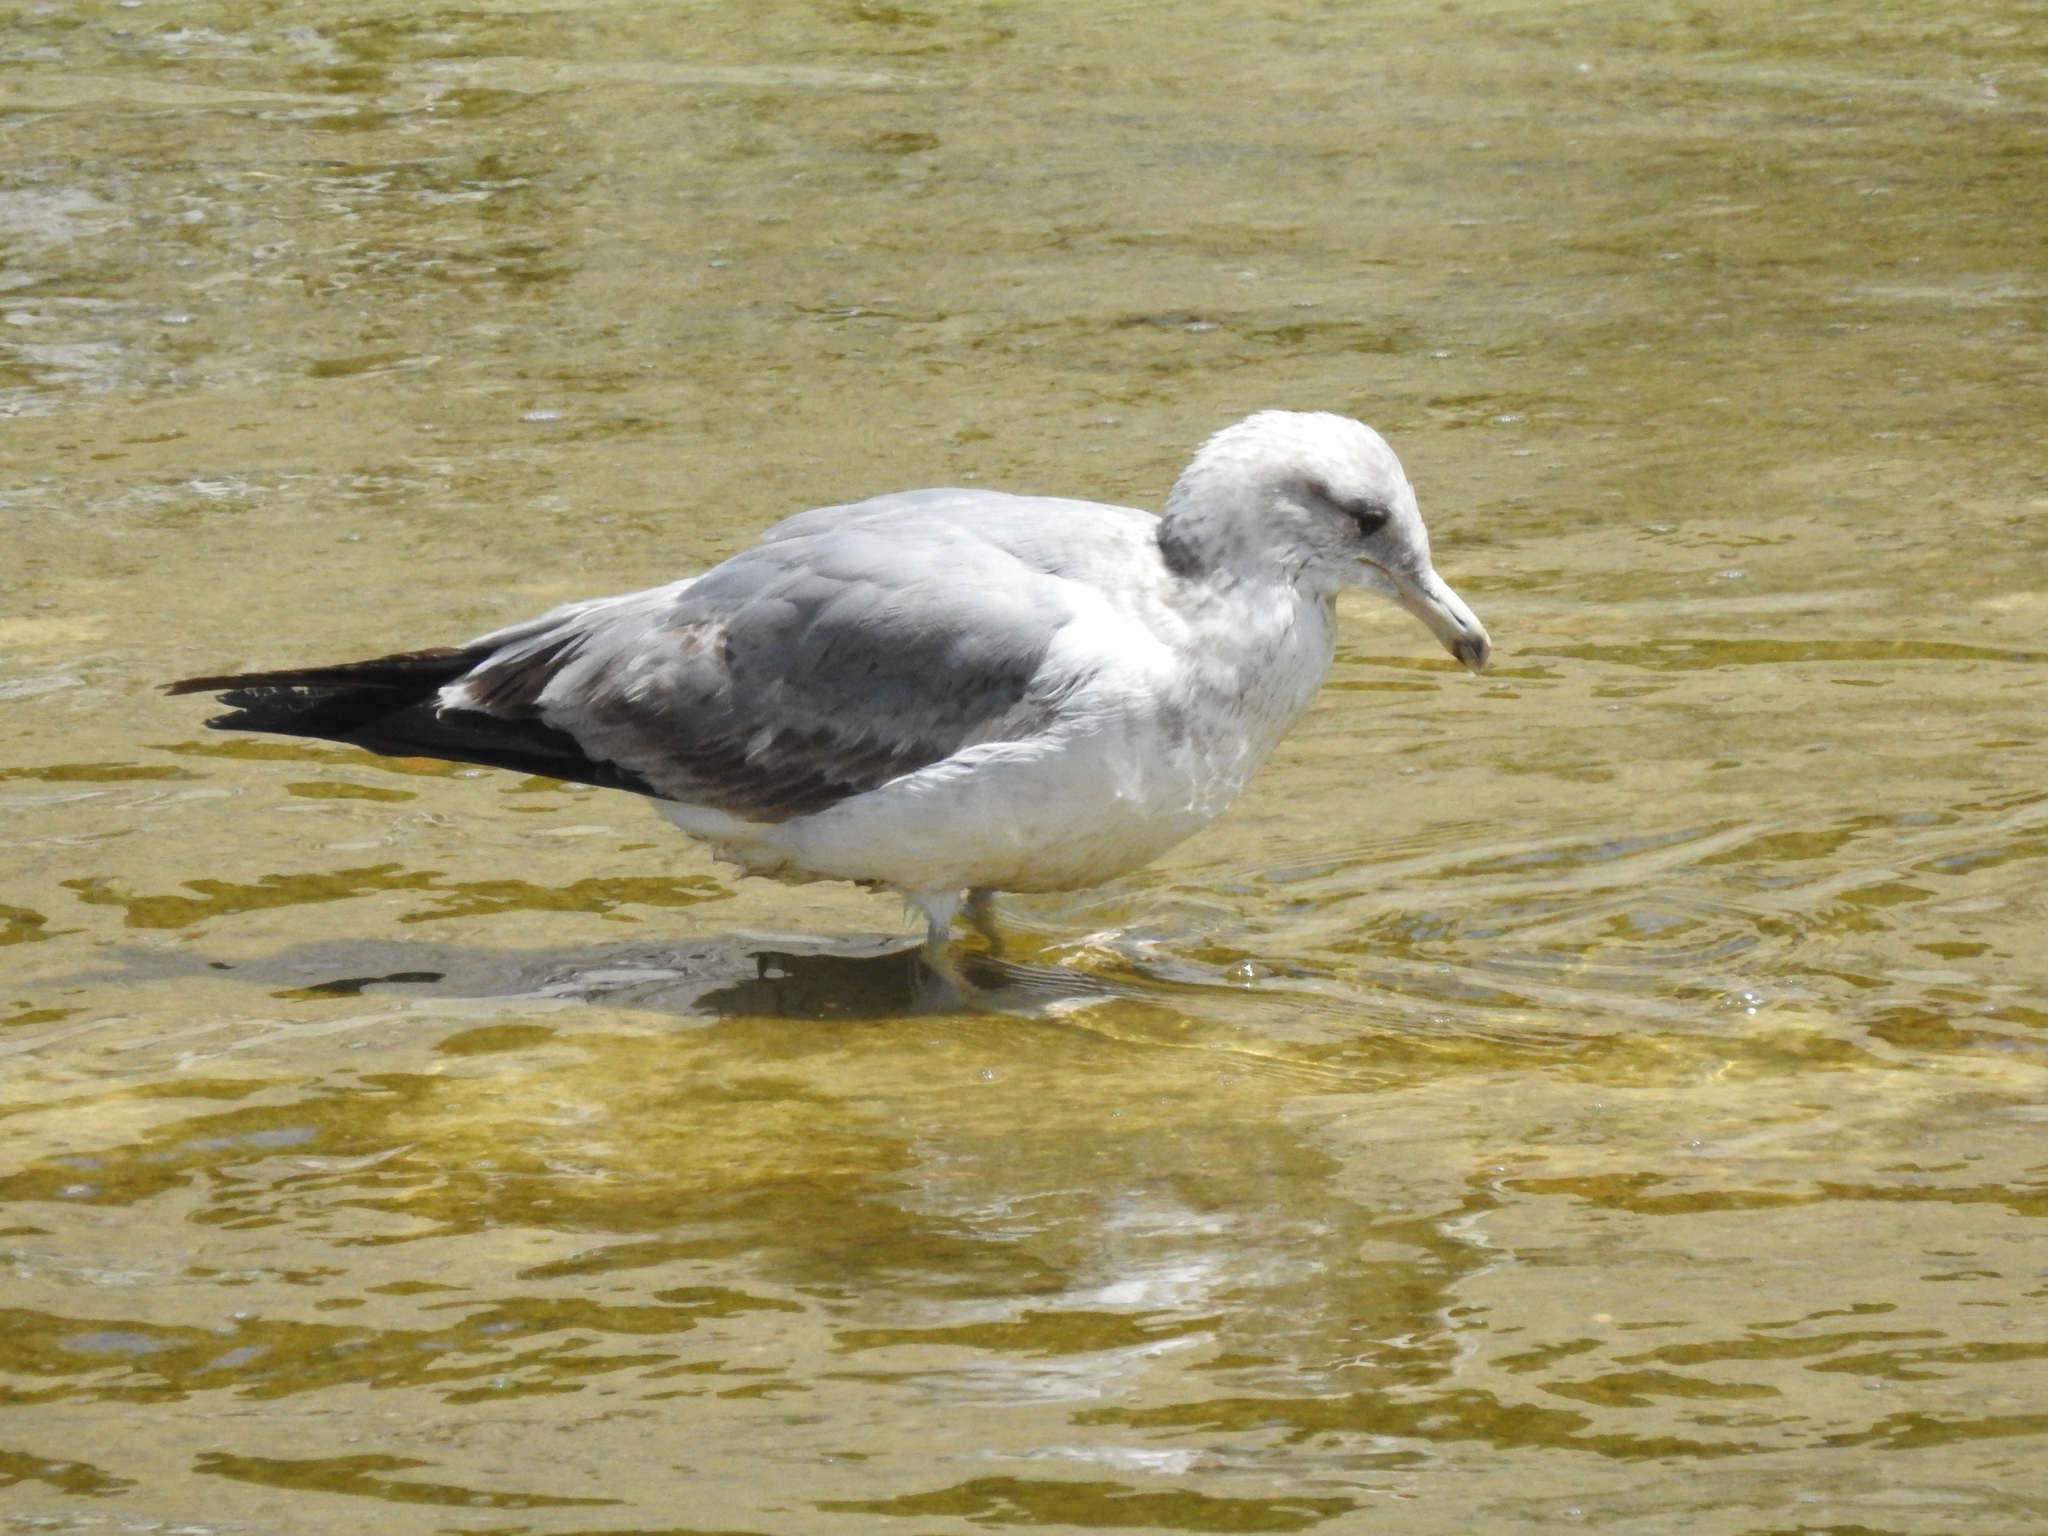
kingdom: Animalia
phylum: Chordata
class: Aves
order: Charadriiformes
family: Laridae
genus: Larus
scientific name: Larus californicus
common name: California gull
